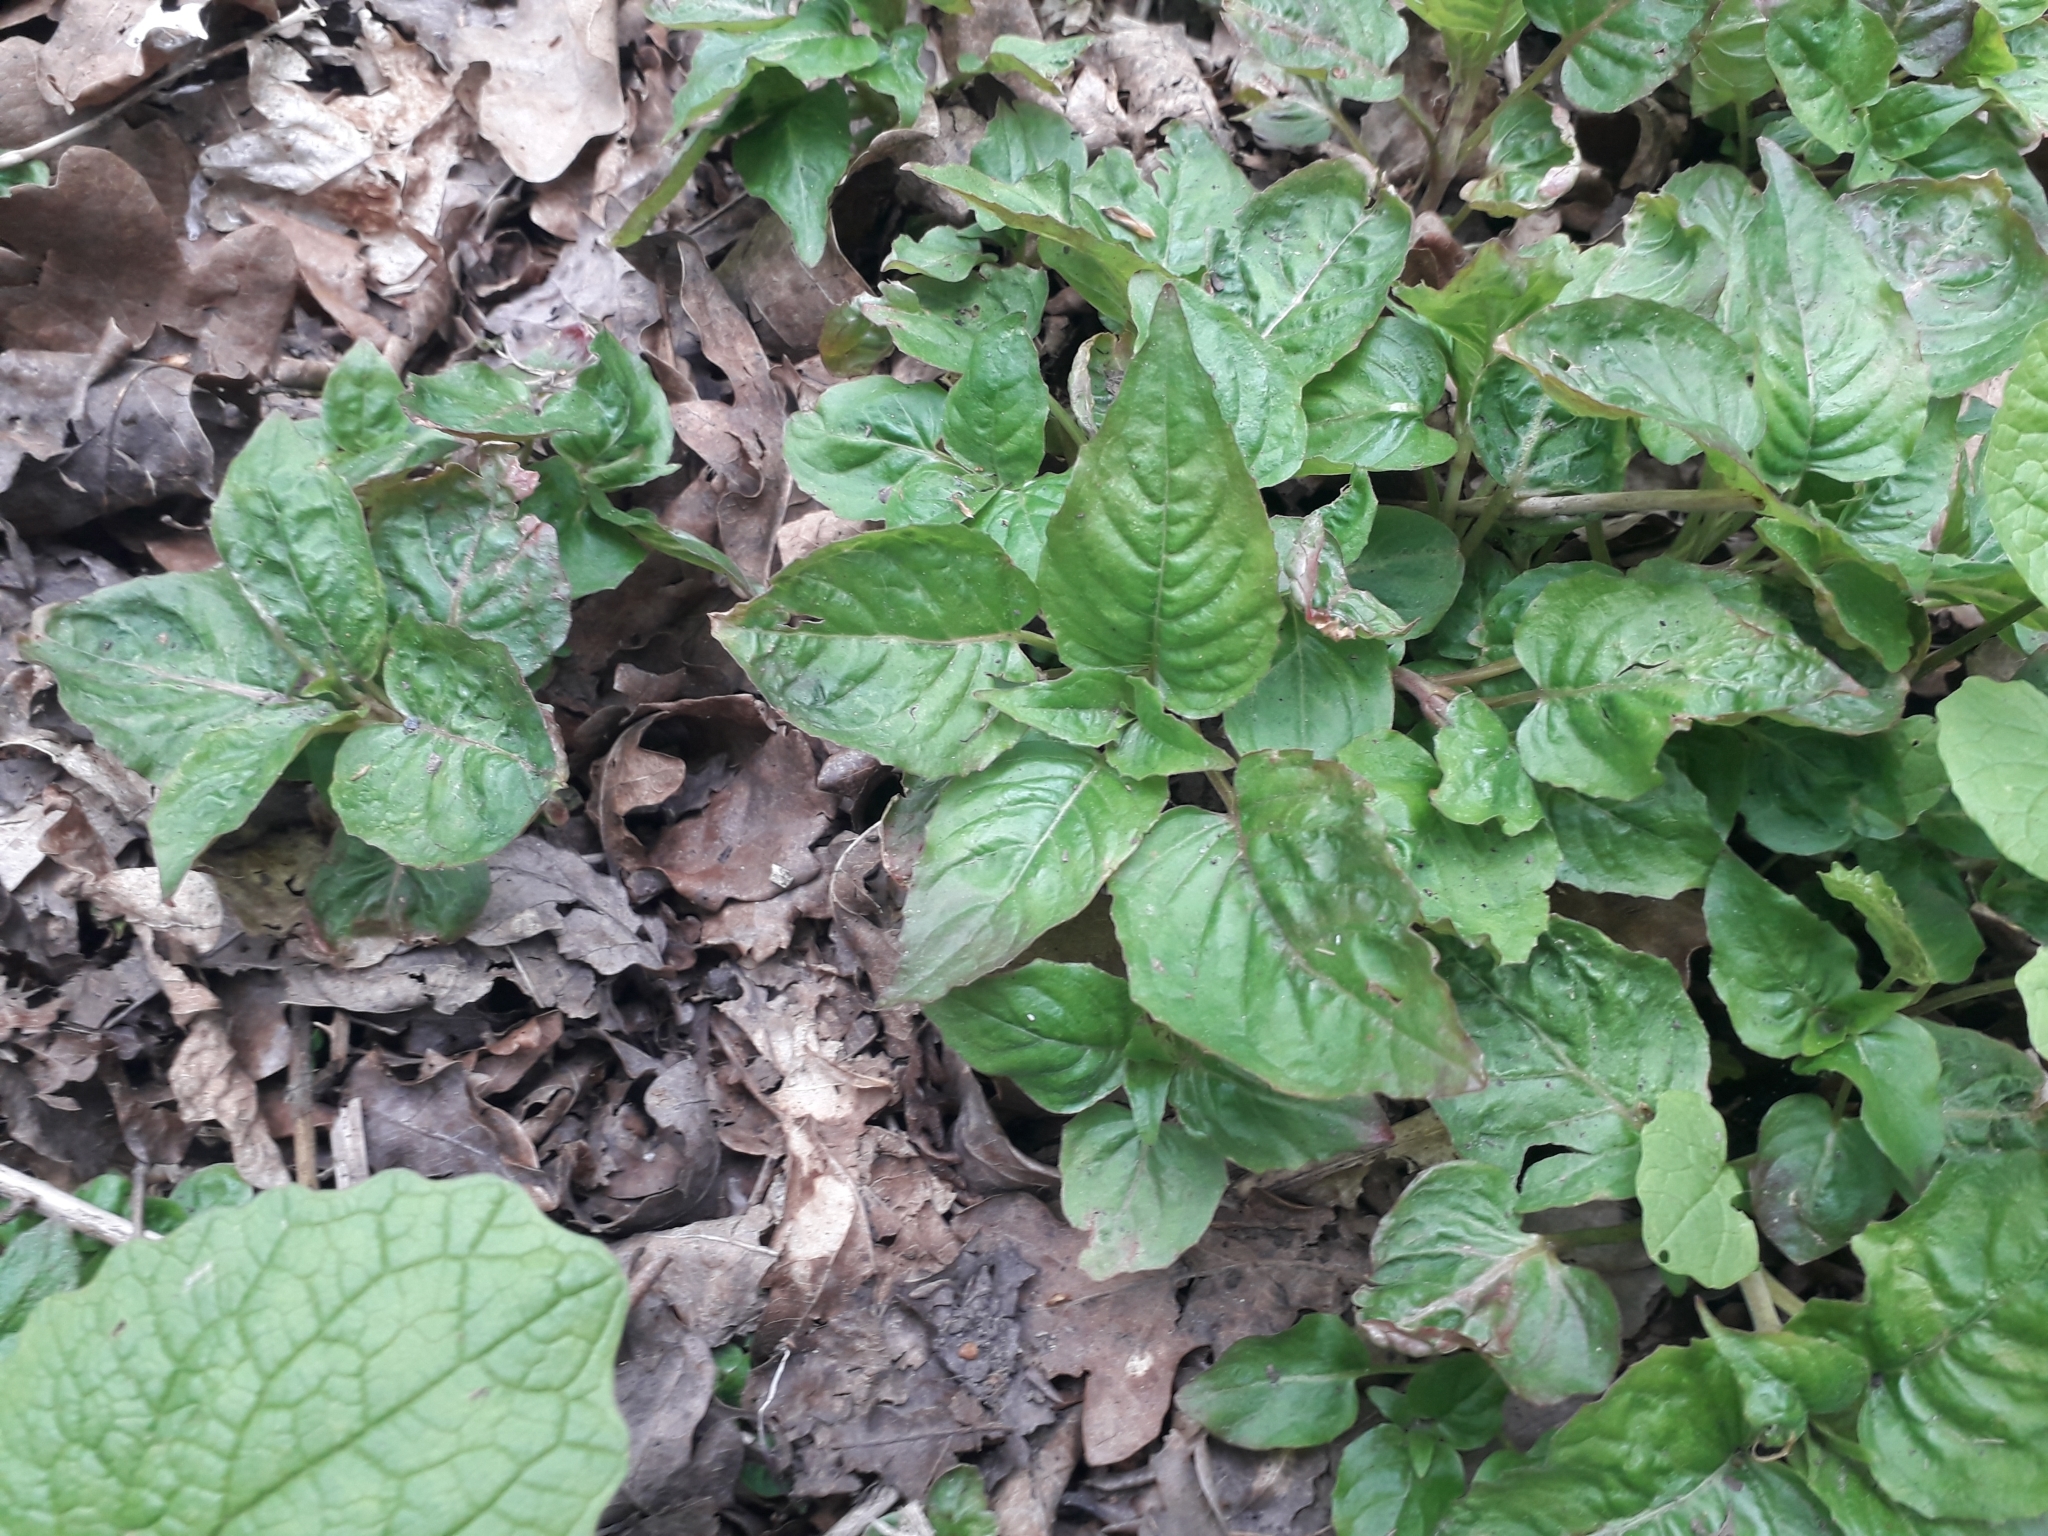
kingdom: Plantae
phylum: Tracheophyta
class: Magnoliopsida
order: Myrtales
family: Onagraceae
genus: Circaea
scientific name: Circaea lutetiana
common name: Enchanter's-nightshade
